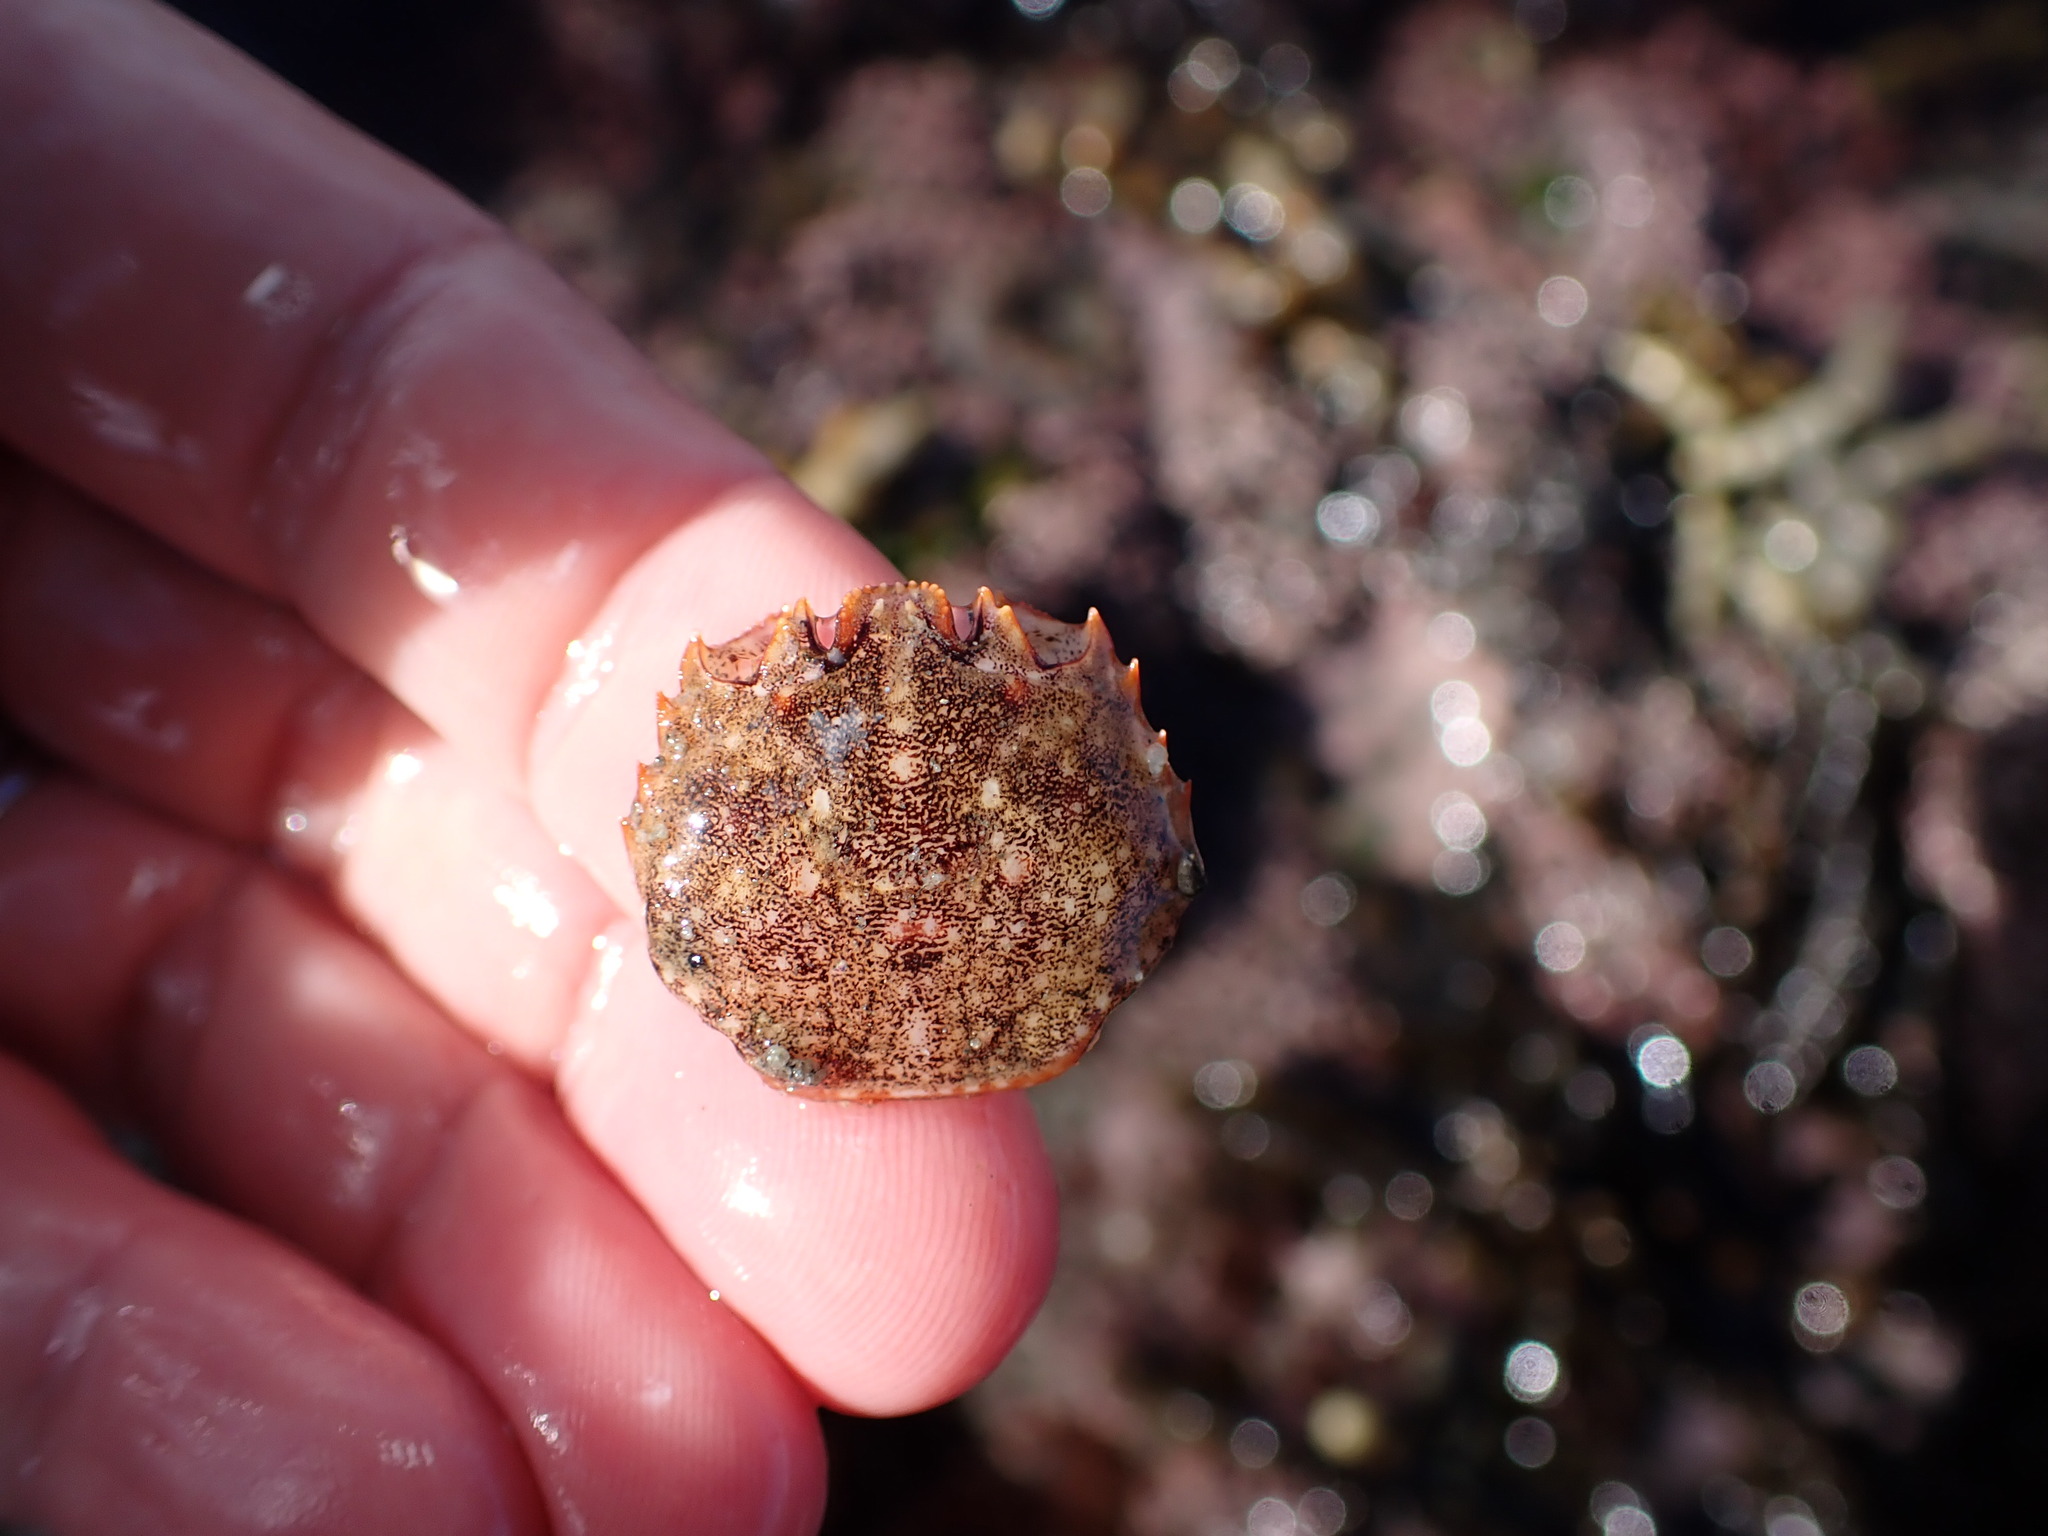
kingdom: Animalia
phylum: Arthropoda
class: Malacostraca
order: Decapoda
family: Plagusiidae
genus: Guinusia
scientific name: Guinusia chabrus
